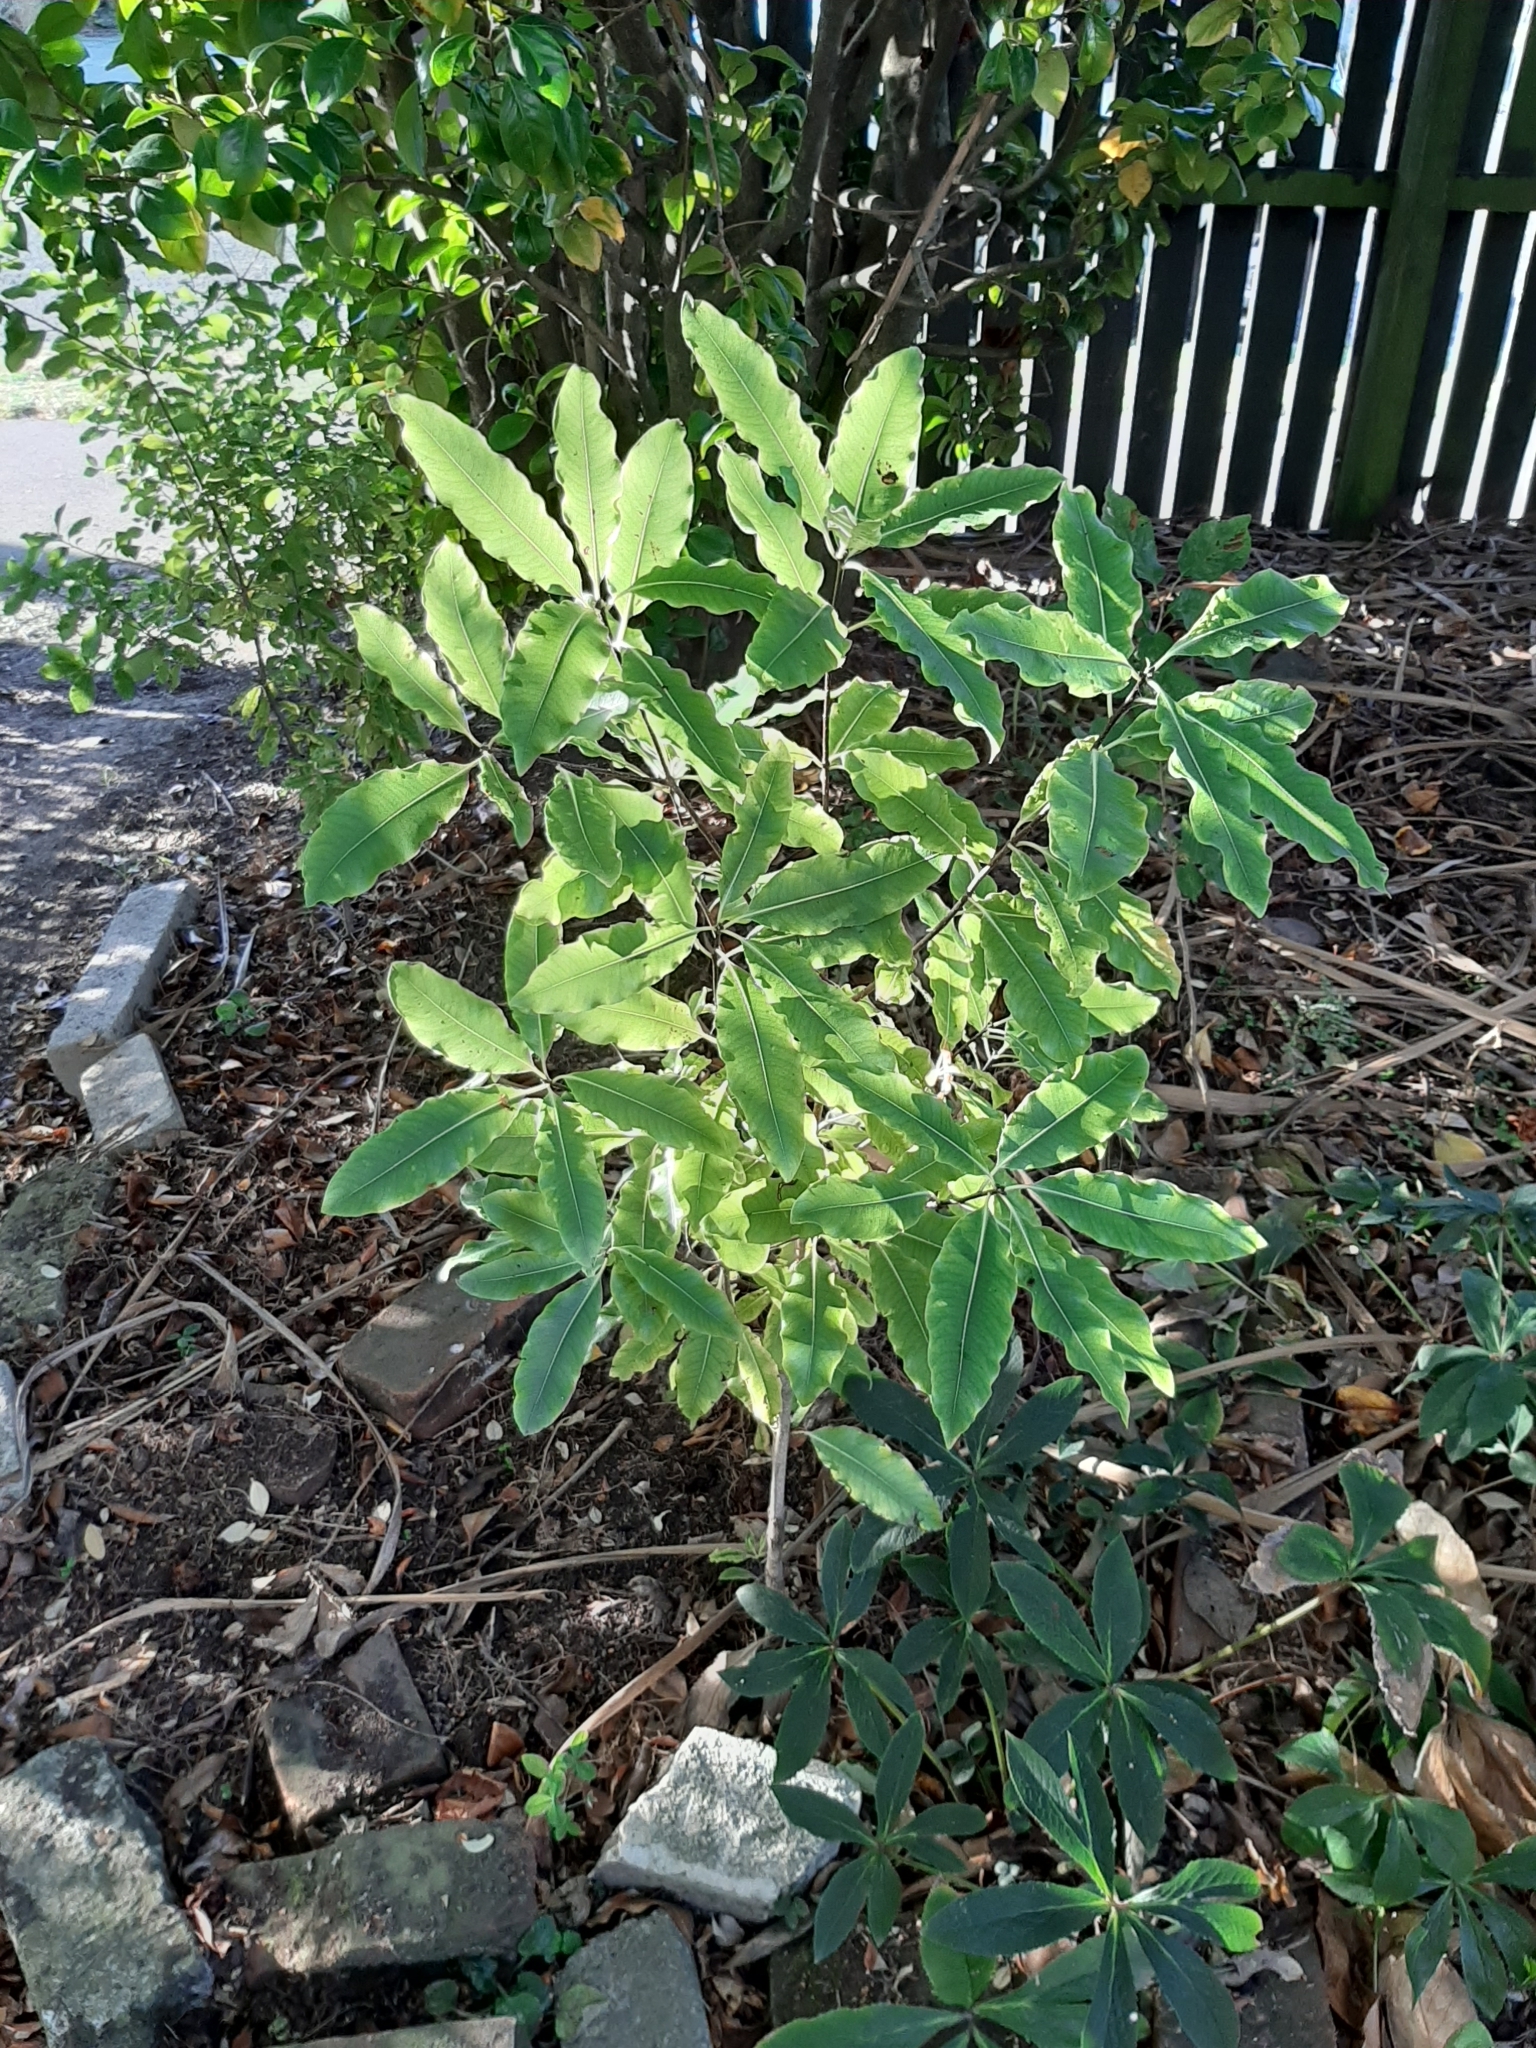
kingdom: Plantae
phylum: Tracheophyta
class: Magnoliopsida
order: Apiales
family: Pittosporaceae
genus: Pittosporum
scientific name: Pittosporum eugenioides
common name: Lemonwood
